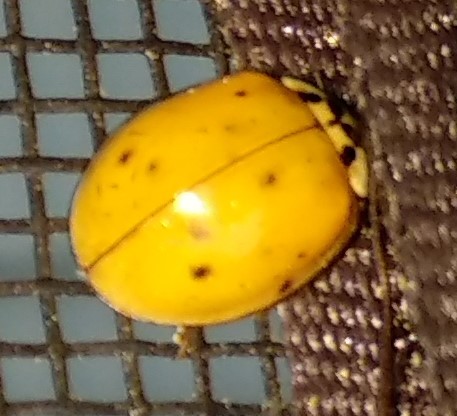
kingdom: Animalia
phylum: Arthropoda
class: Insecta
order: Coleoptera
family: Coccinellidae
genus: Harmonia
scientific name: Harmonia axyridis
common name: Harlequin ladybird
